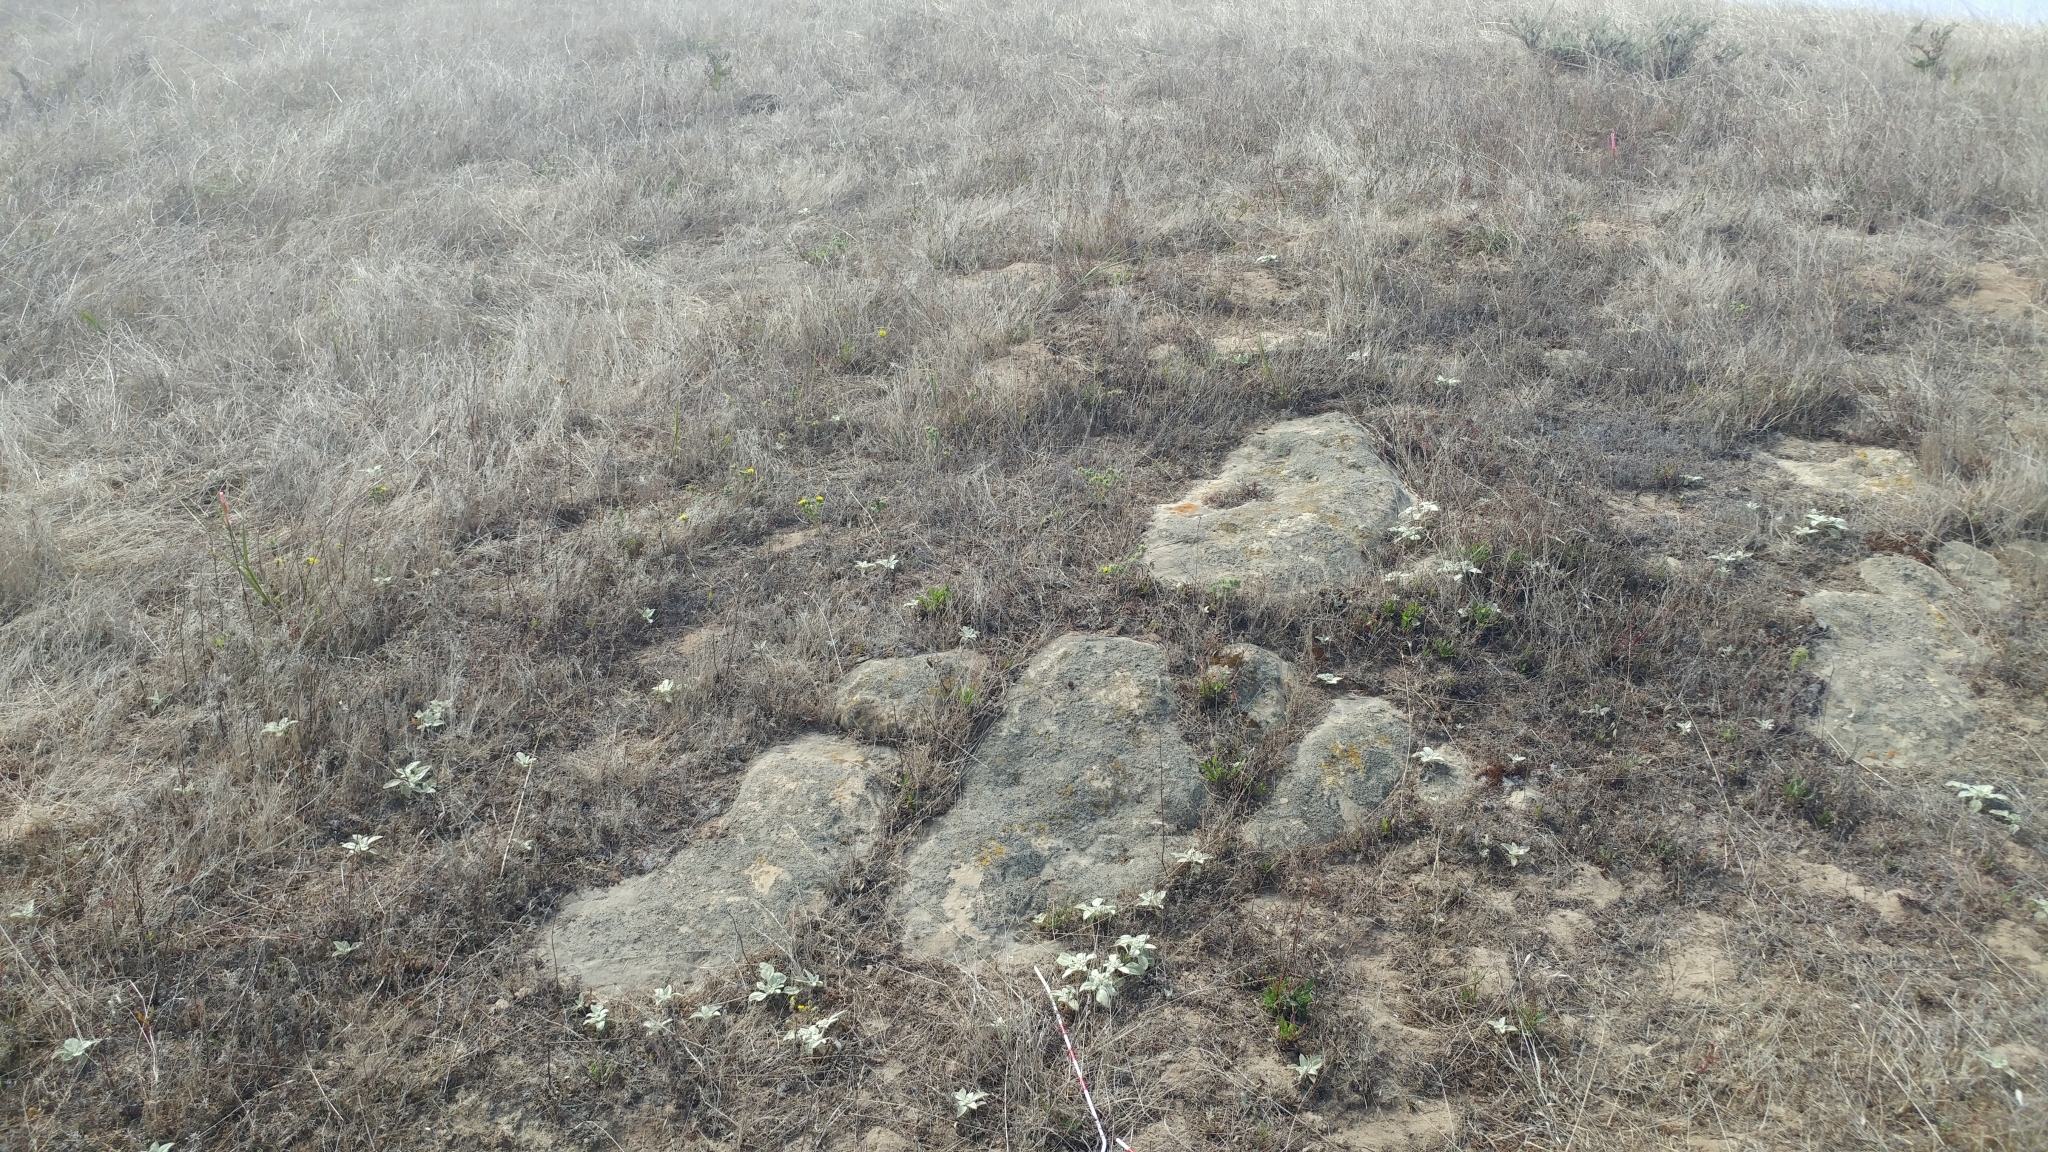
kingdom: Plantae
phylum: Tracheophyta
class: Magnoliopsida
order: Asterales
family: Asteraceae
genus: Deinandra
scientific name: Deinandra increscens
